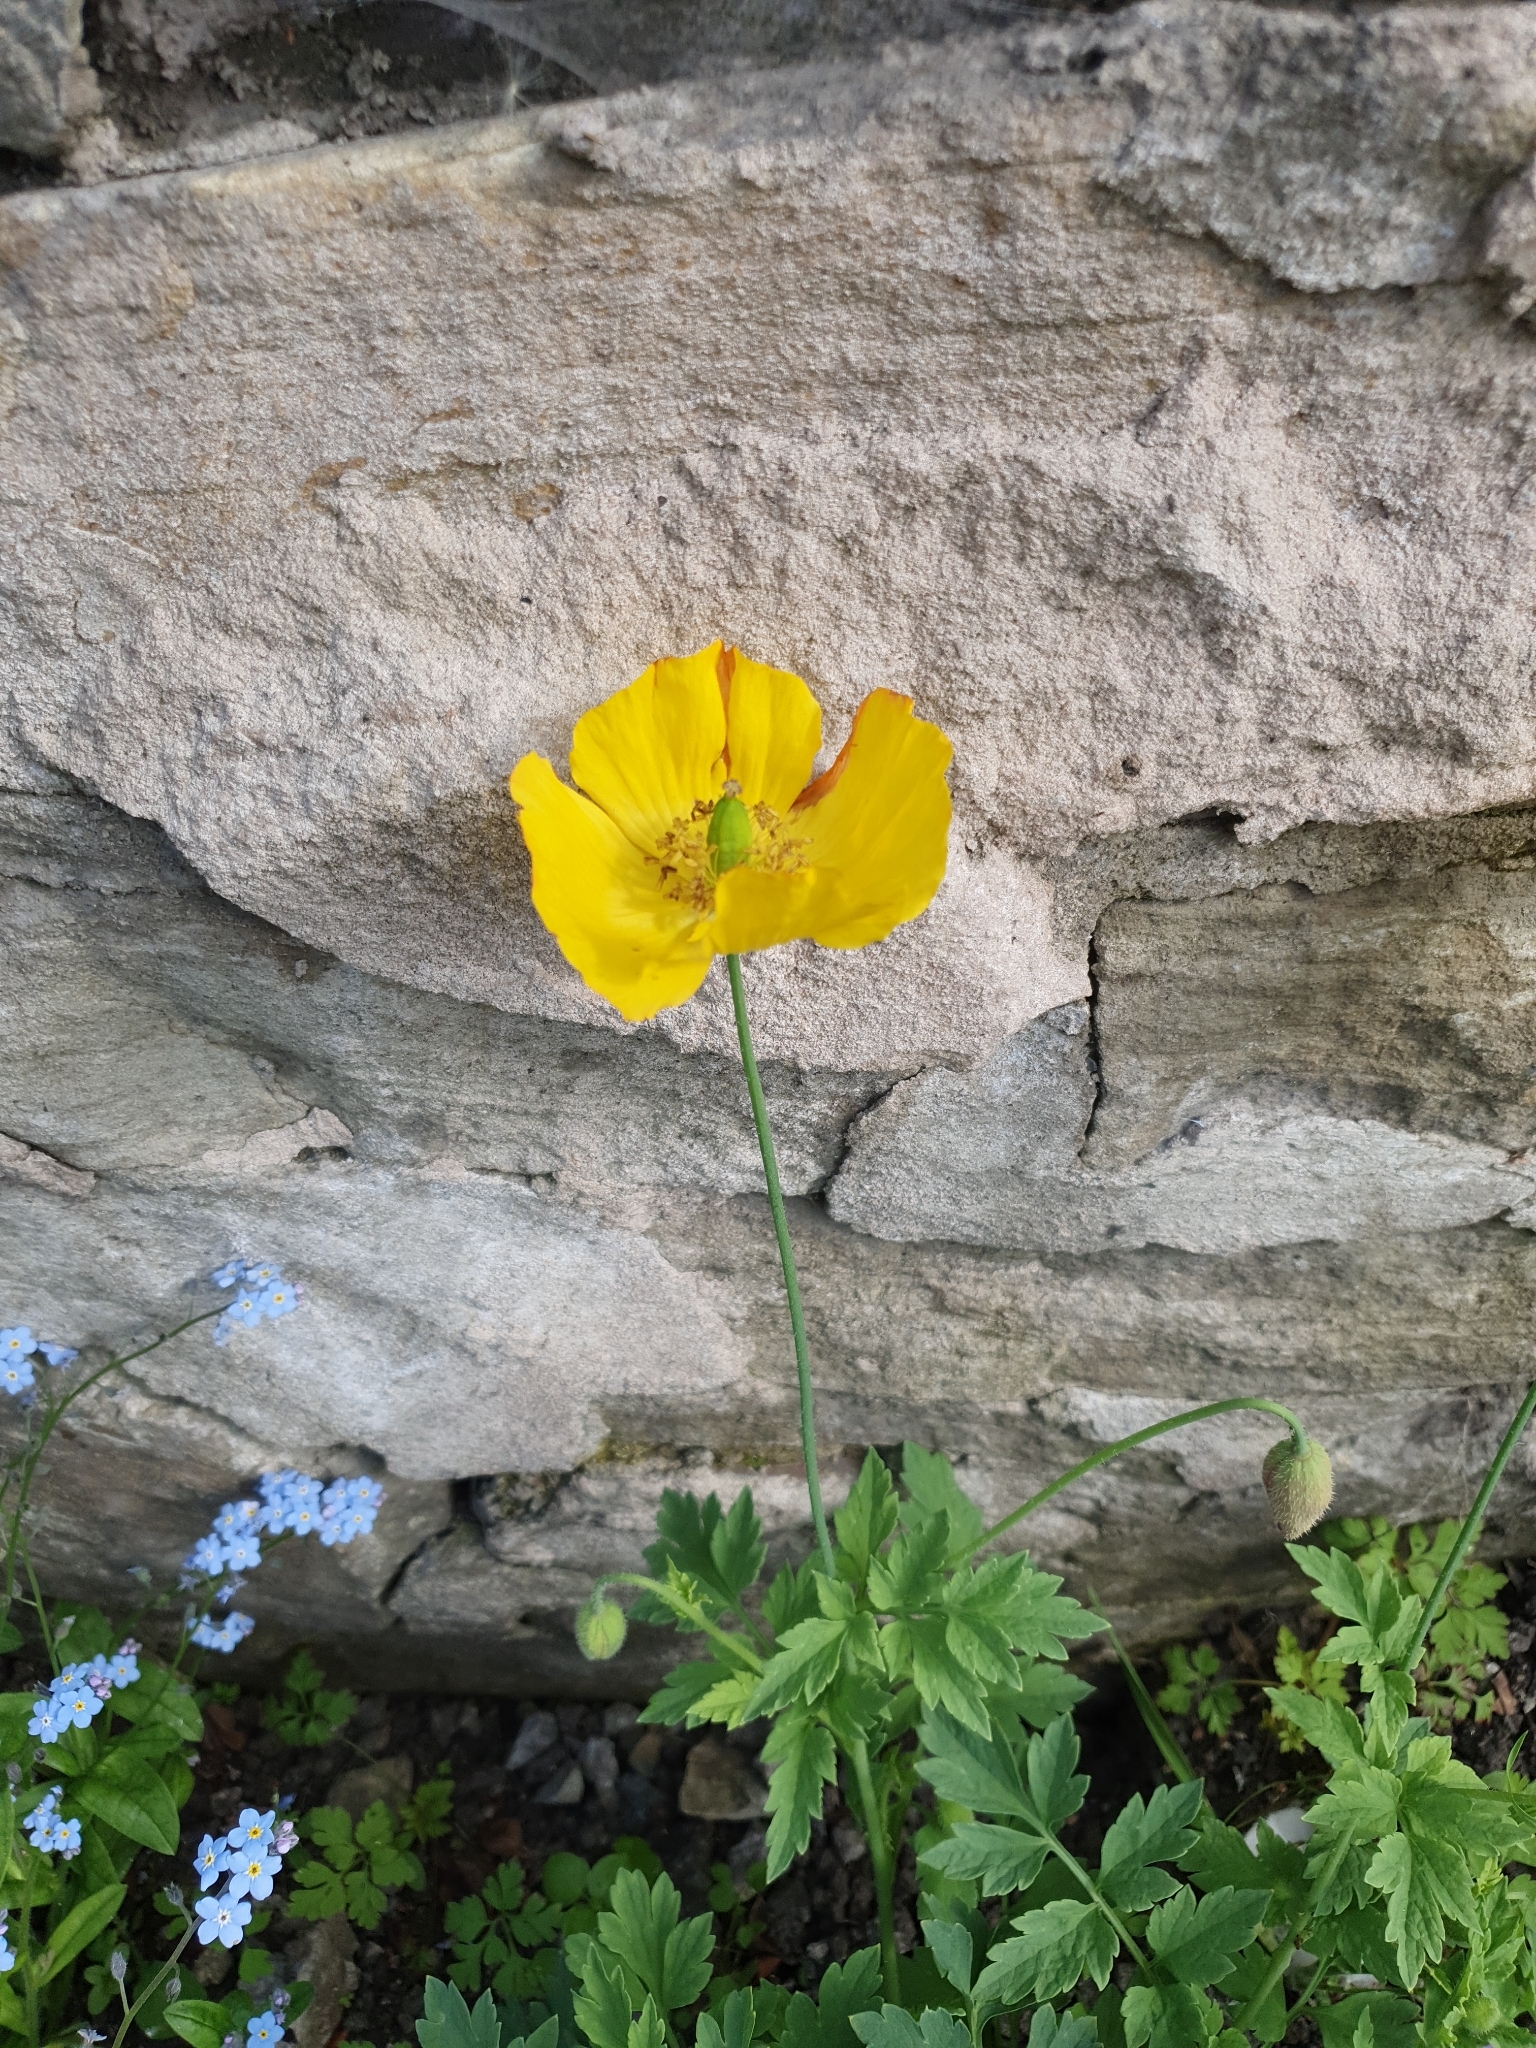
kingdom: Plantae
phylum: Tracheophyta
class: Magnoliopsida
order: Ranunculales
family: Papaveraceae
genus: Papaver
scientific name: Papaver cambricum
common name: Poppy
